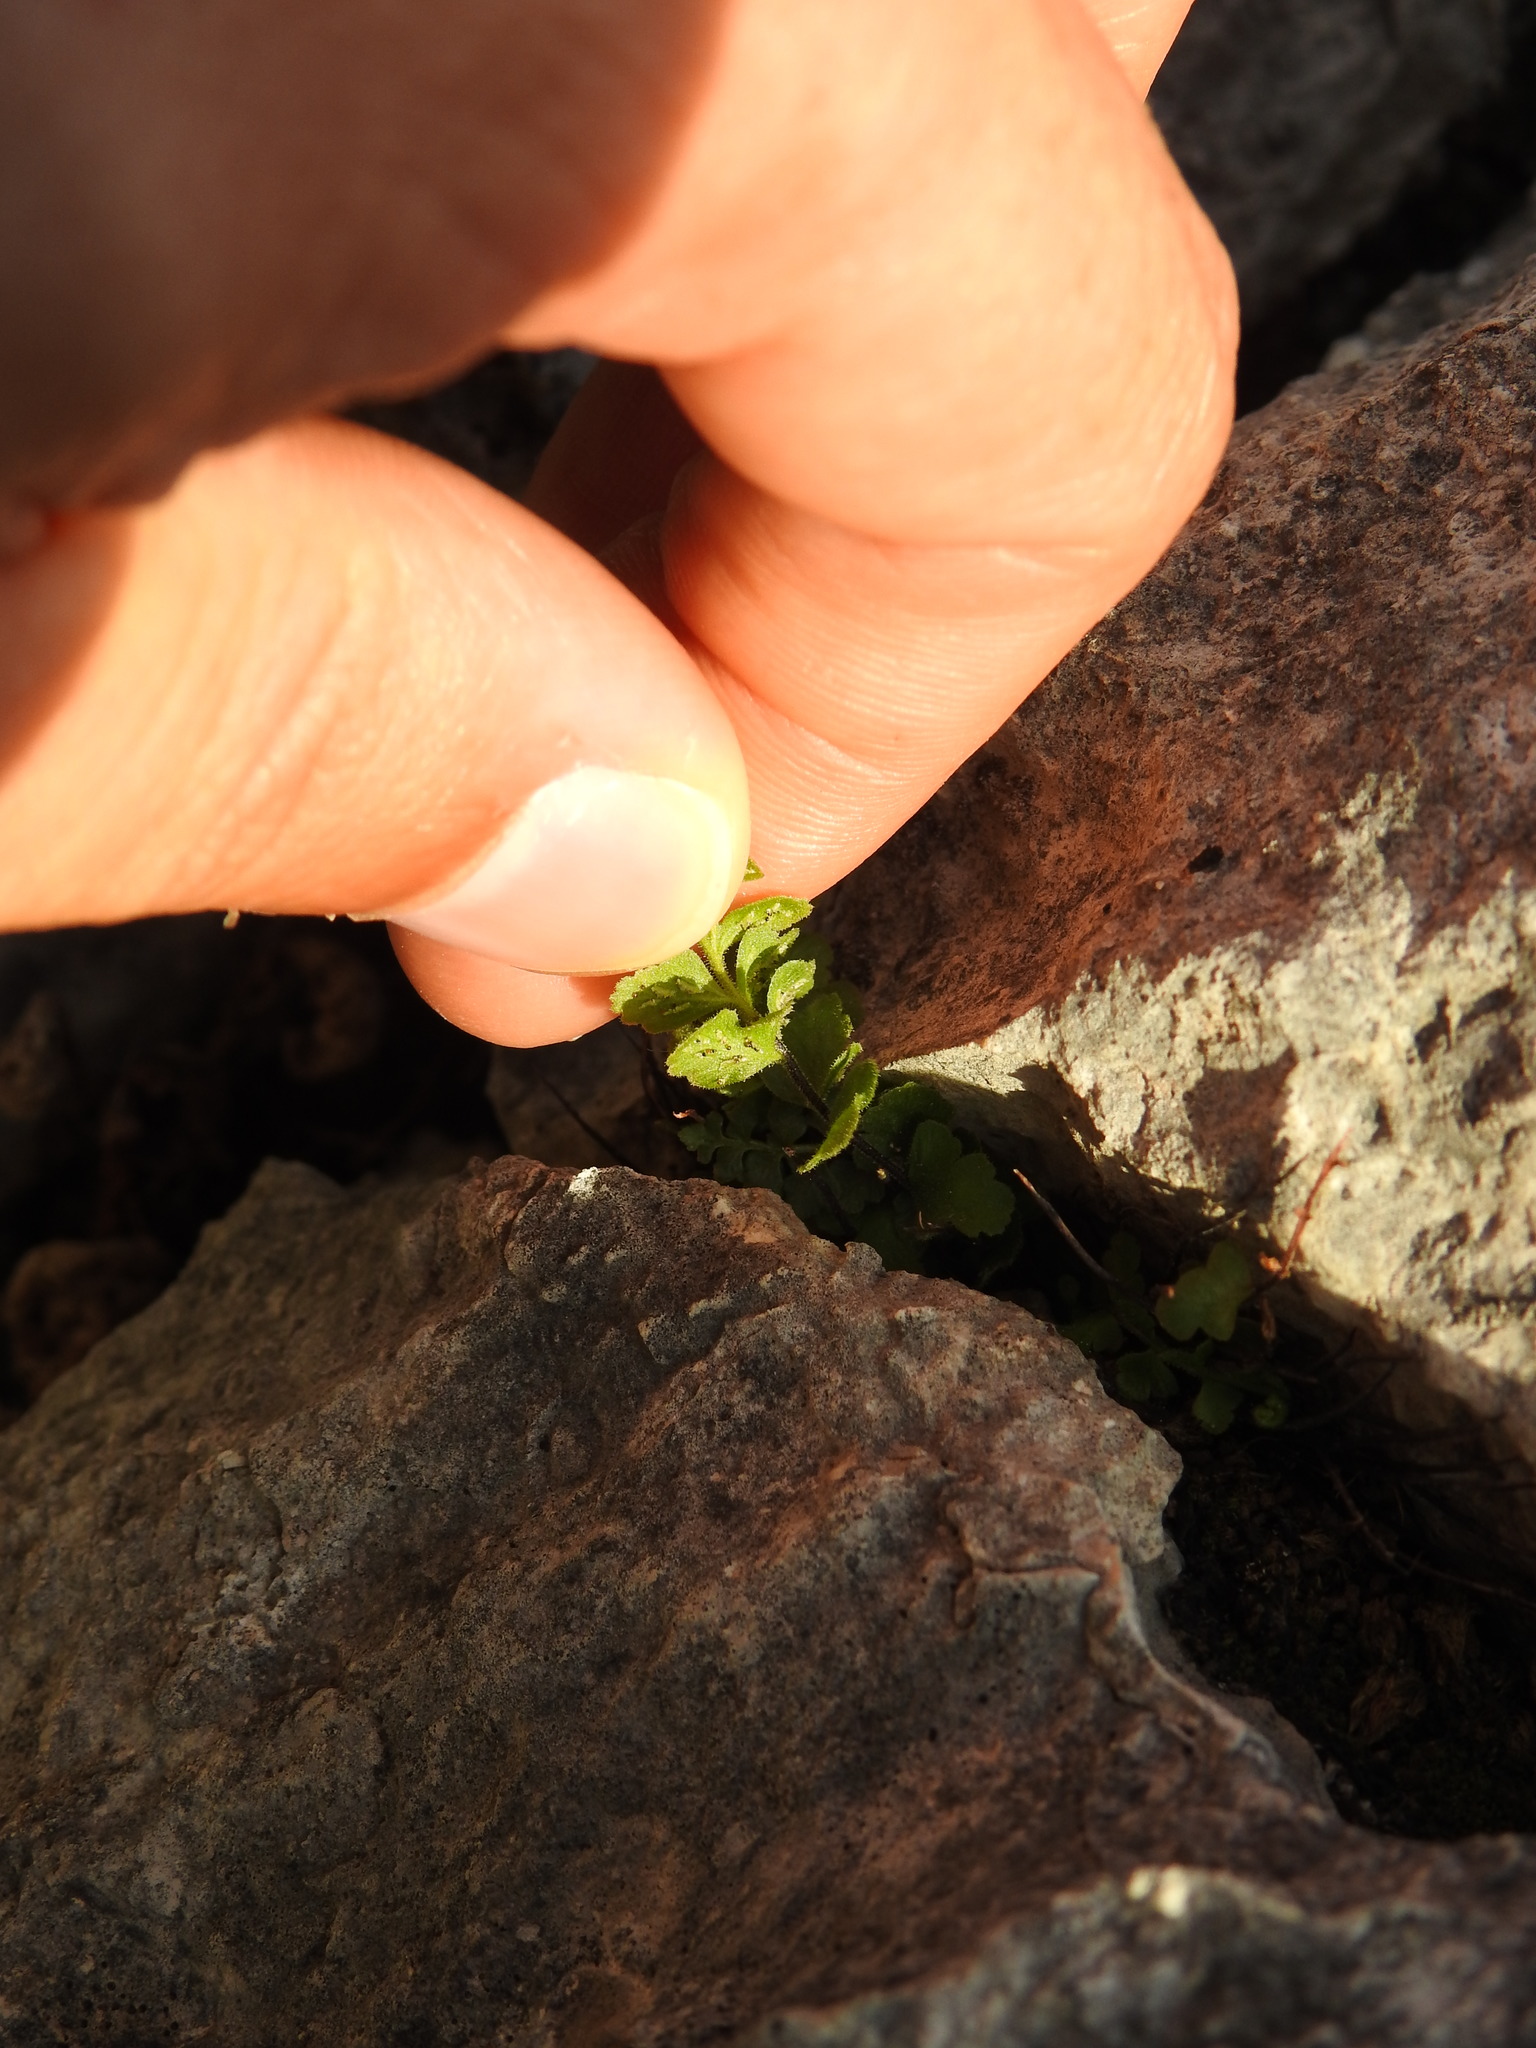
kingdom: Plantae
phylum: Tracheophyta
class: Polypodiopsida
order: Polypodiales
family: Aspleniaceae
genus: Asplenium
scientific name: Asplenium petrarchae
